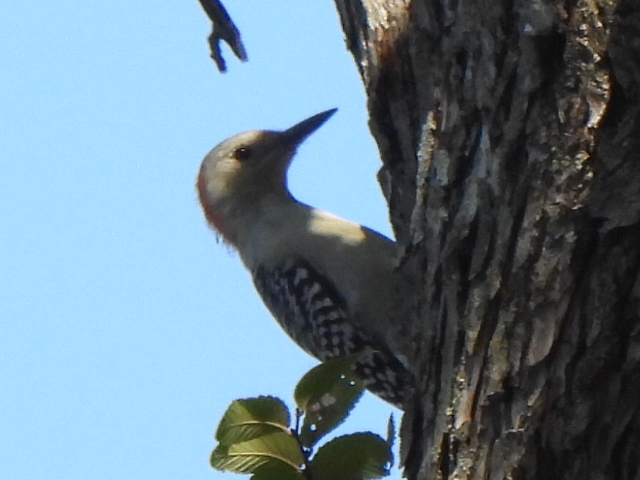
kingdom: Animalia
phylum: Chordata
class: Aves
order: Piciformes
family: Picidae
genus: Melanerpes
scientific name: Melanerpes carolinus
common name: Red-bellied woodpecker
